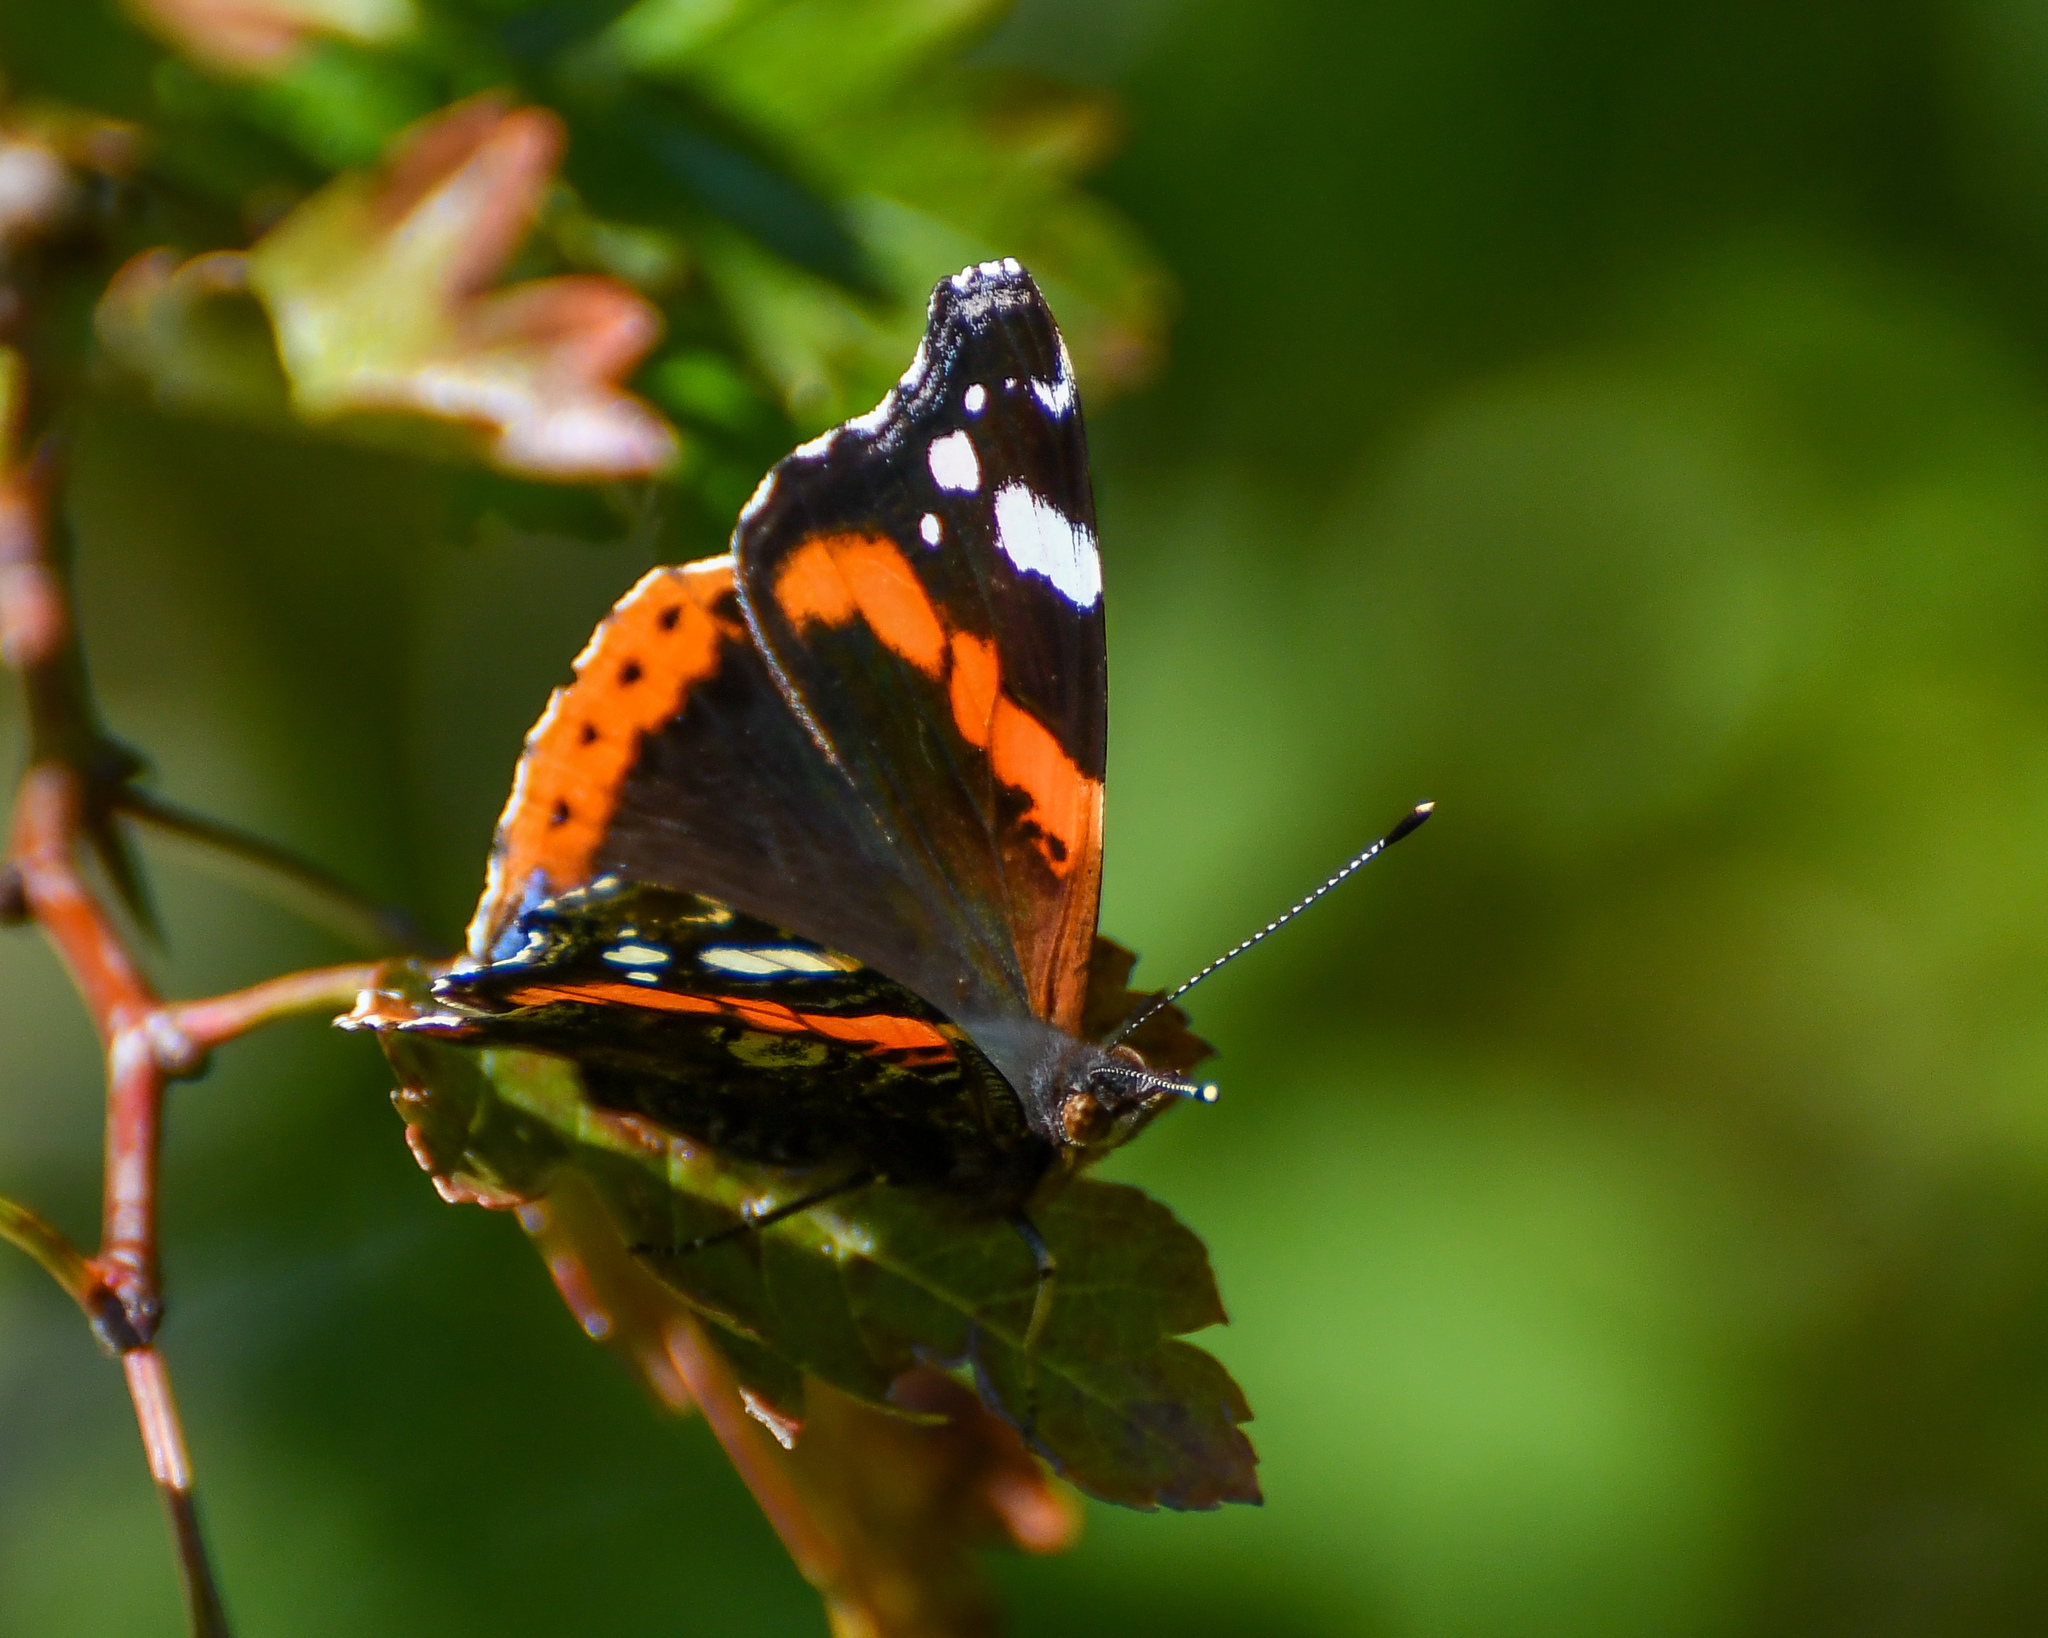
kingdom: Animalia
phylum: Arthropoda
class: Insecta
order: Lepidoptera
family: Nymphalidae
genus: Vanessa
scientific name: Vanessa atalanta
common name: Red admiral
